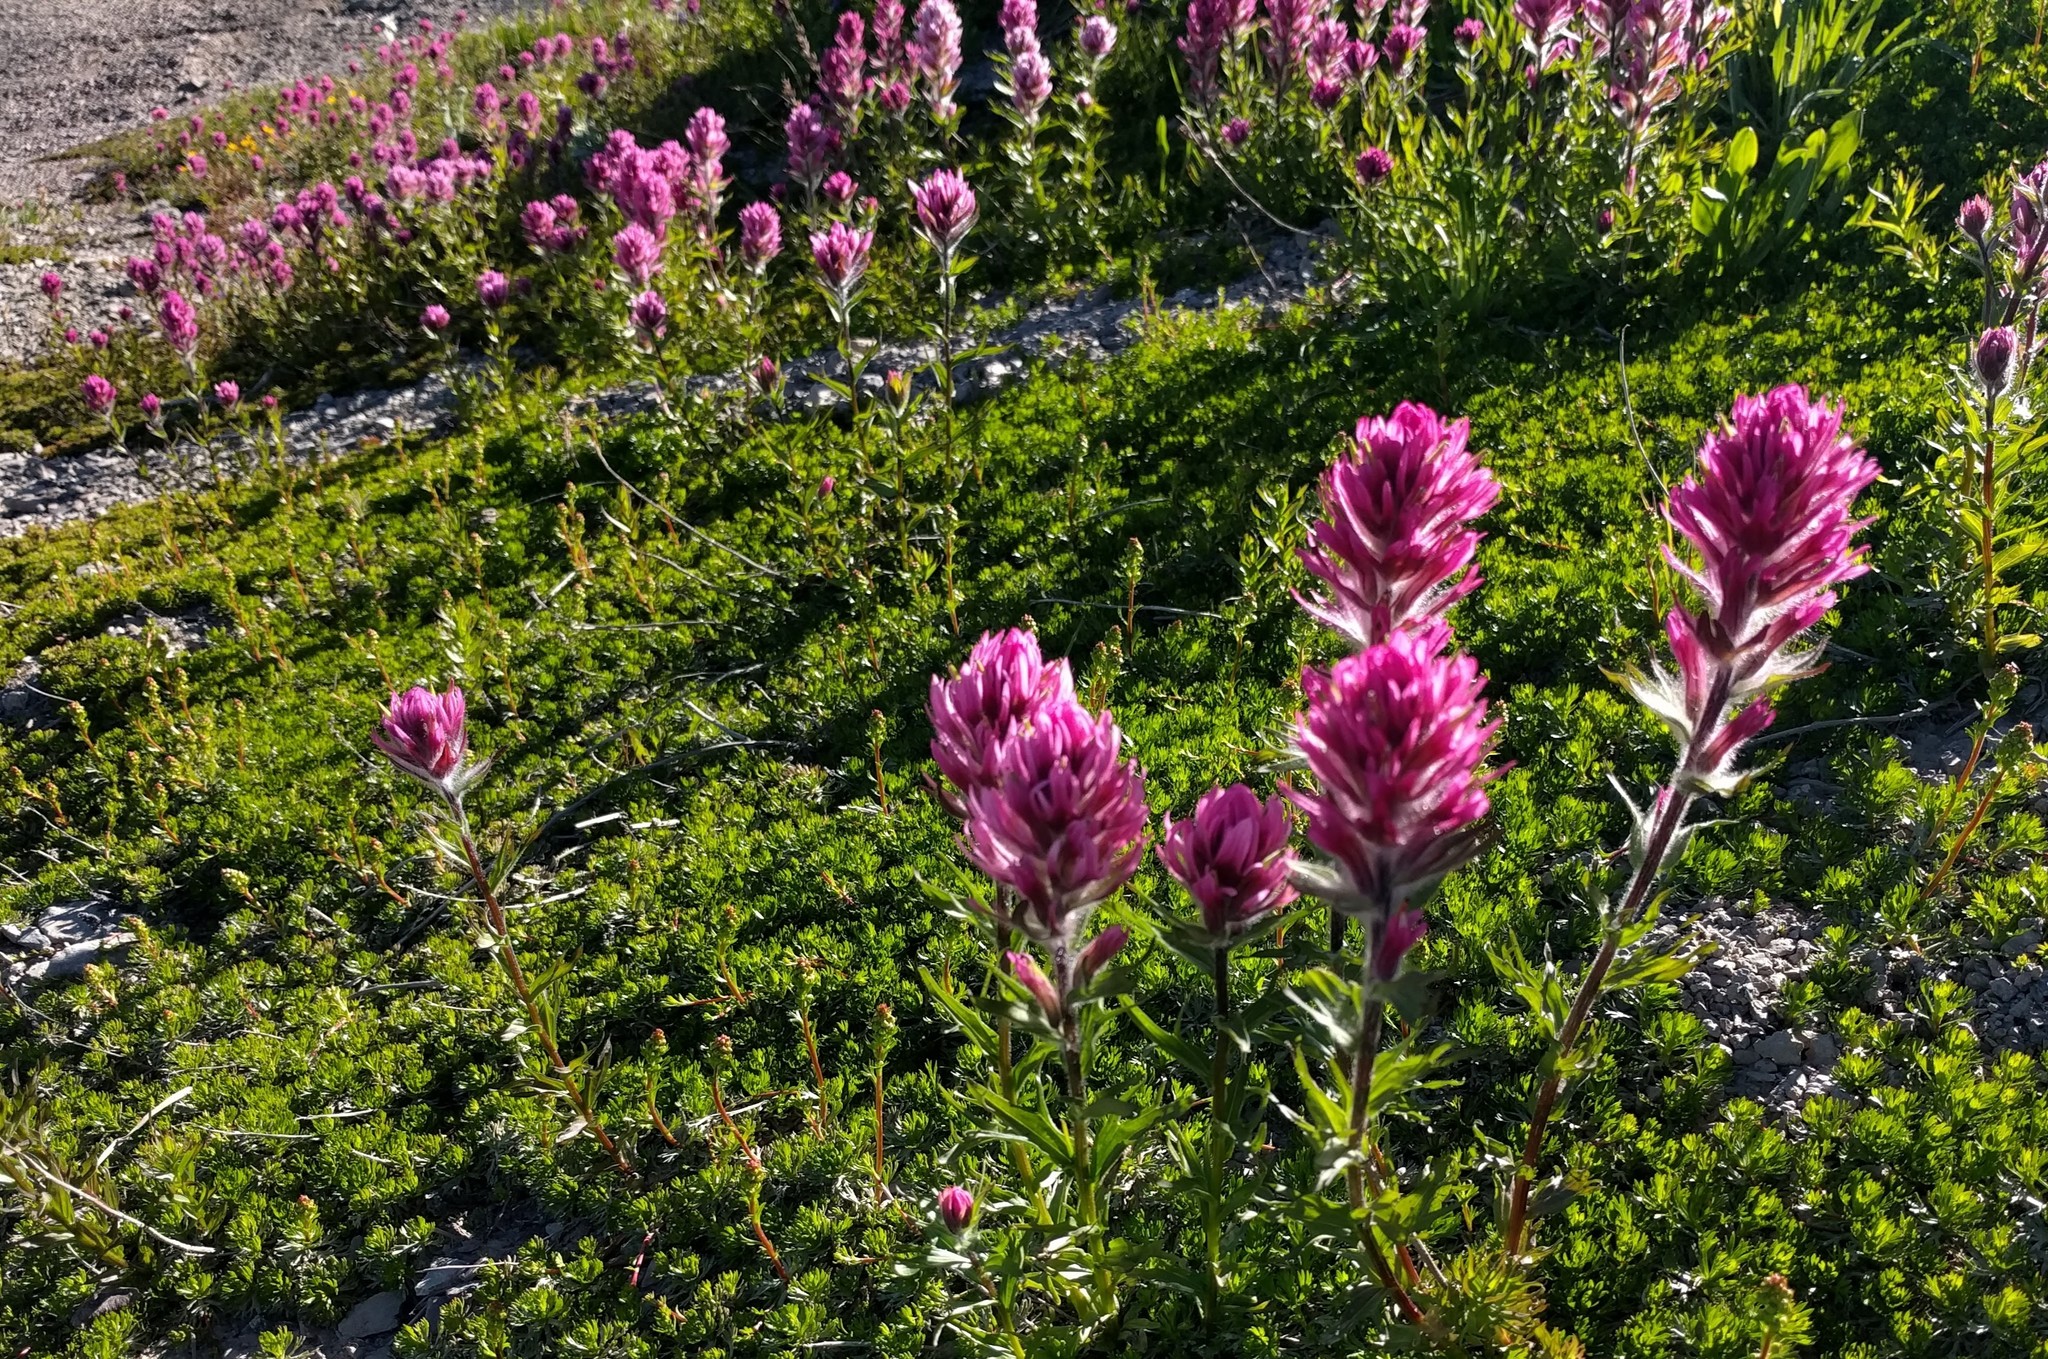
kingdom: Plantae
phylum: Tracheophyta
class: Magnoliopsida
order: Lamiales
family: Orobanchaceae
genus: Castilleja
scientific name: Castilleja parviflora
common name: Mountain paintbrush
